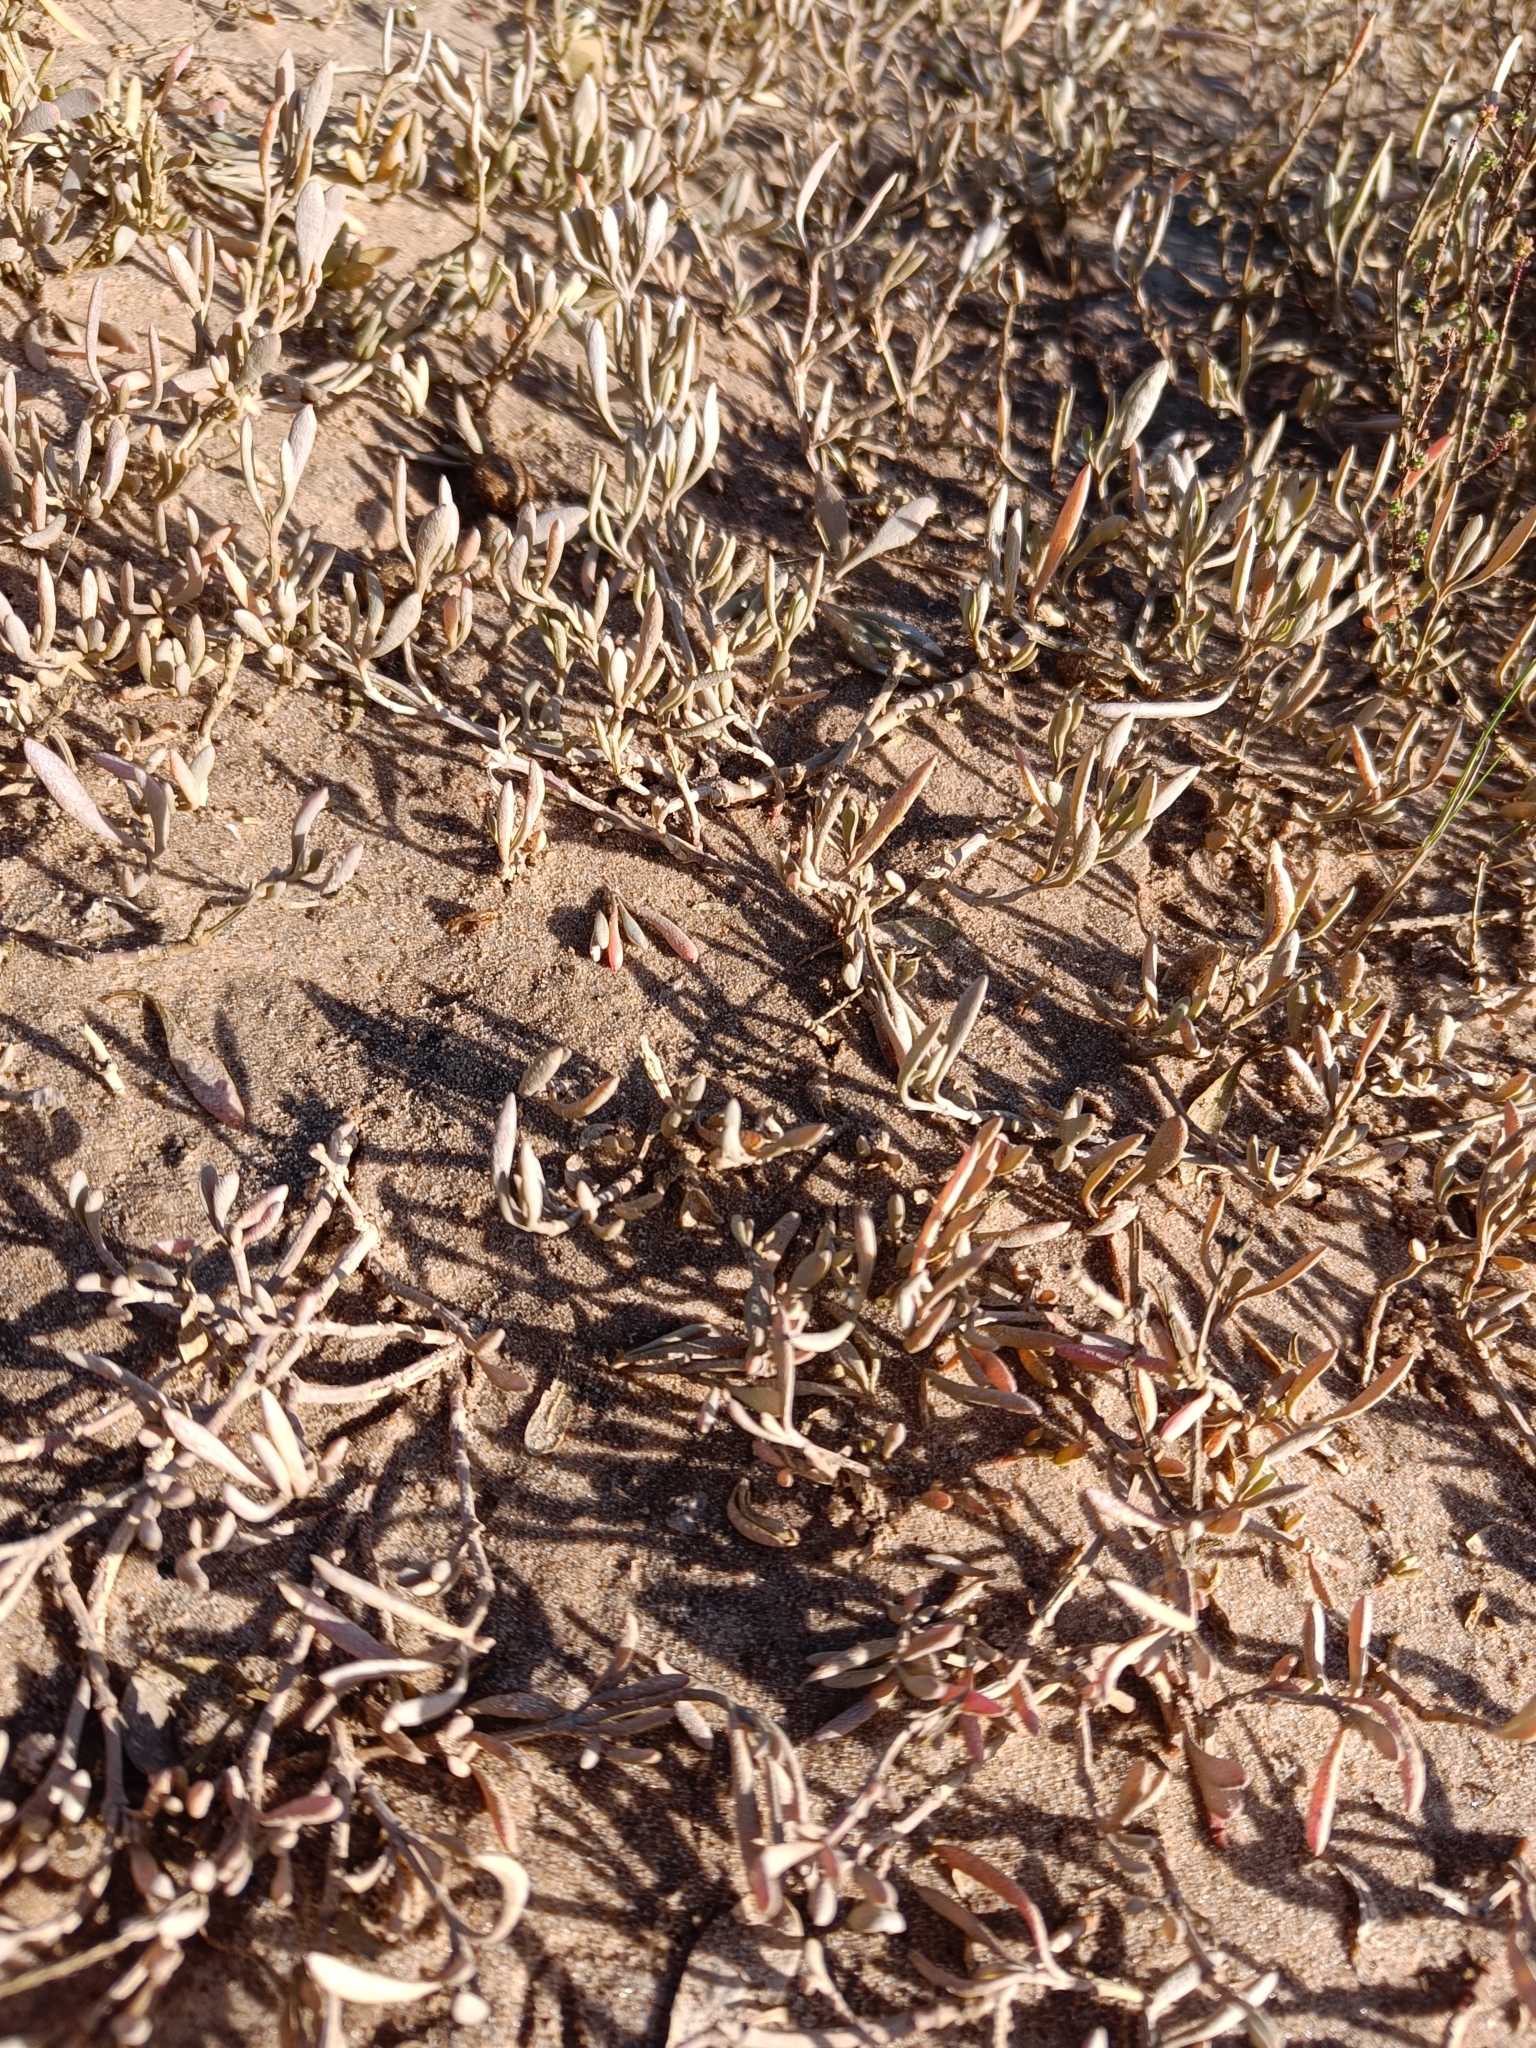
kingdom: Plantae
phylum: Tracheophyta
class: Magnoliopsida
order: Caryophyllales
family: Amaranthaceae
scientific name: Amaranthaceae
